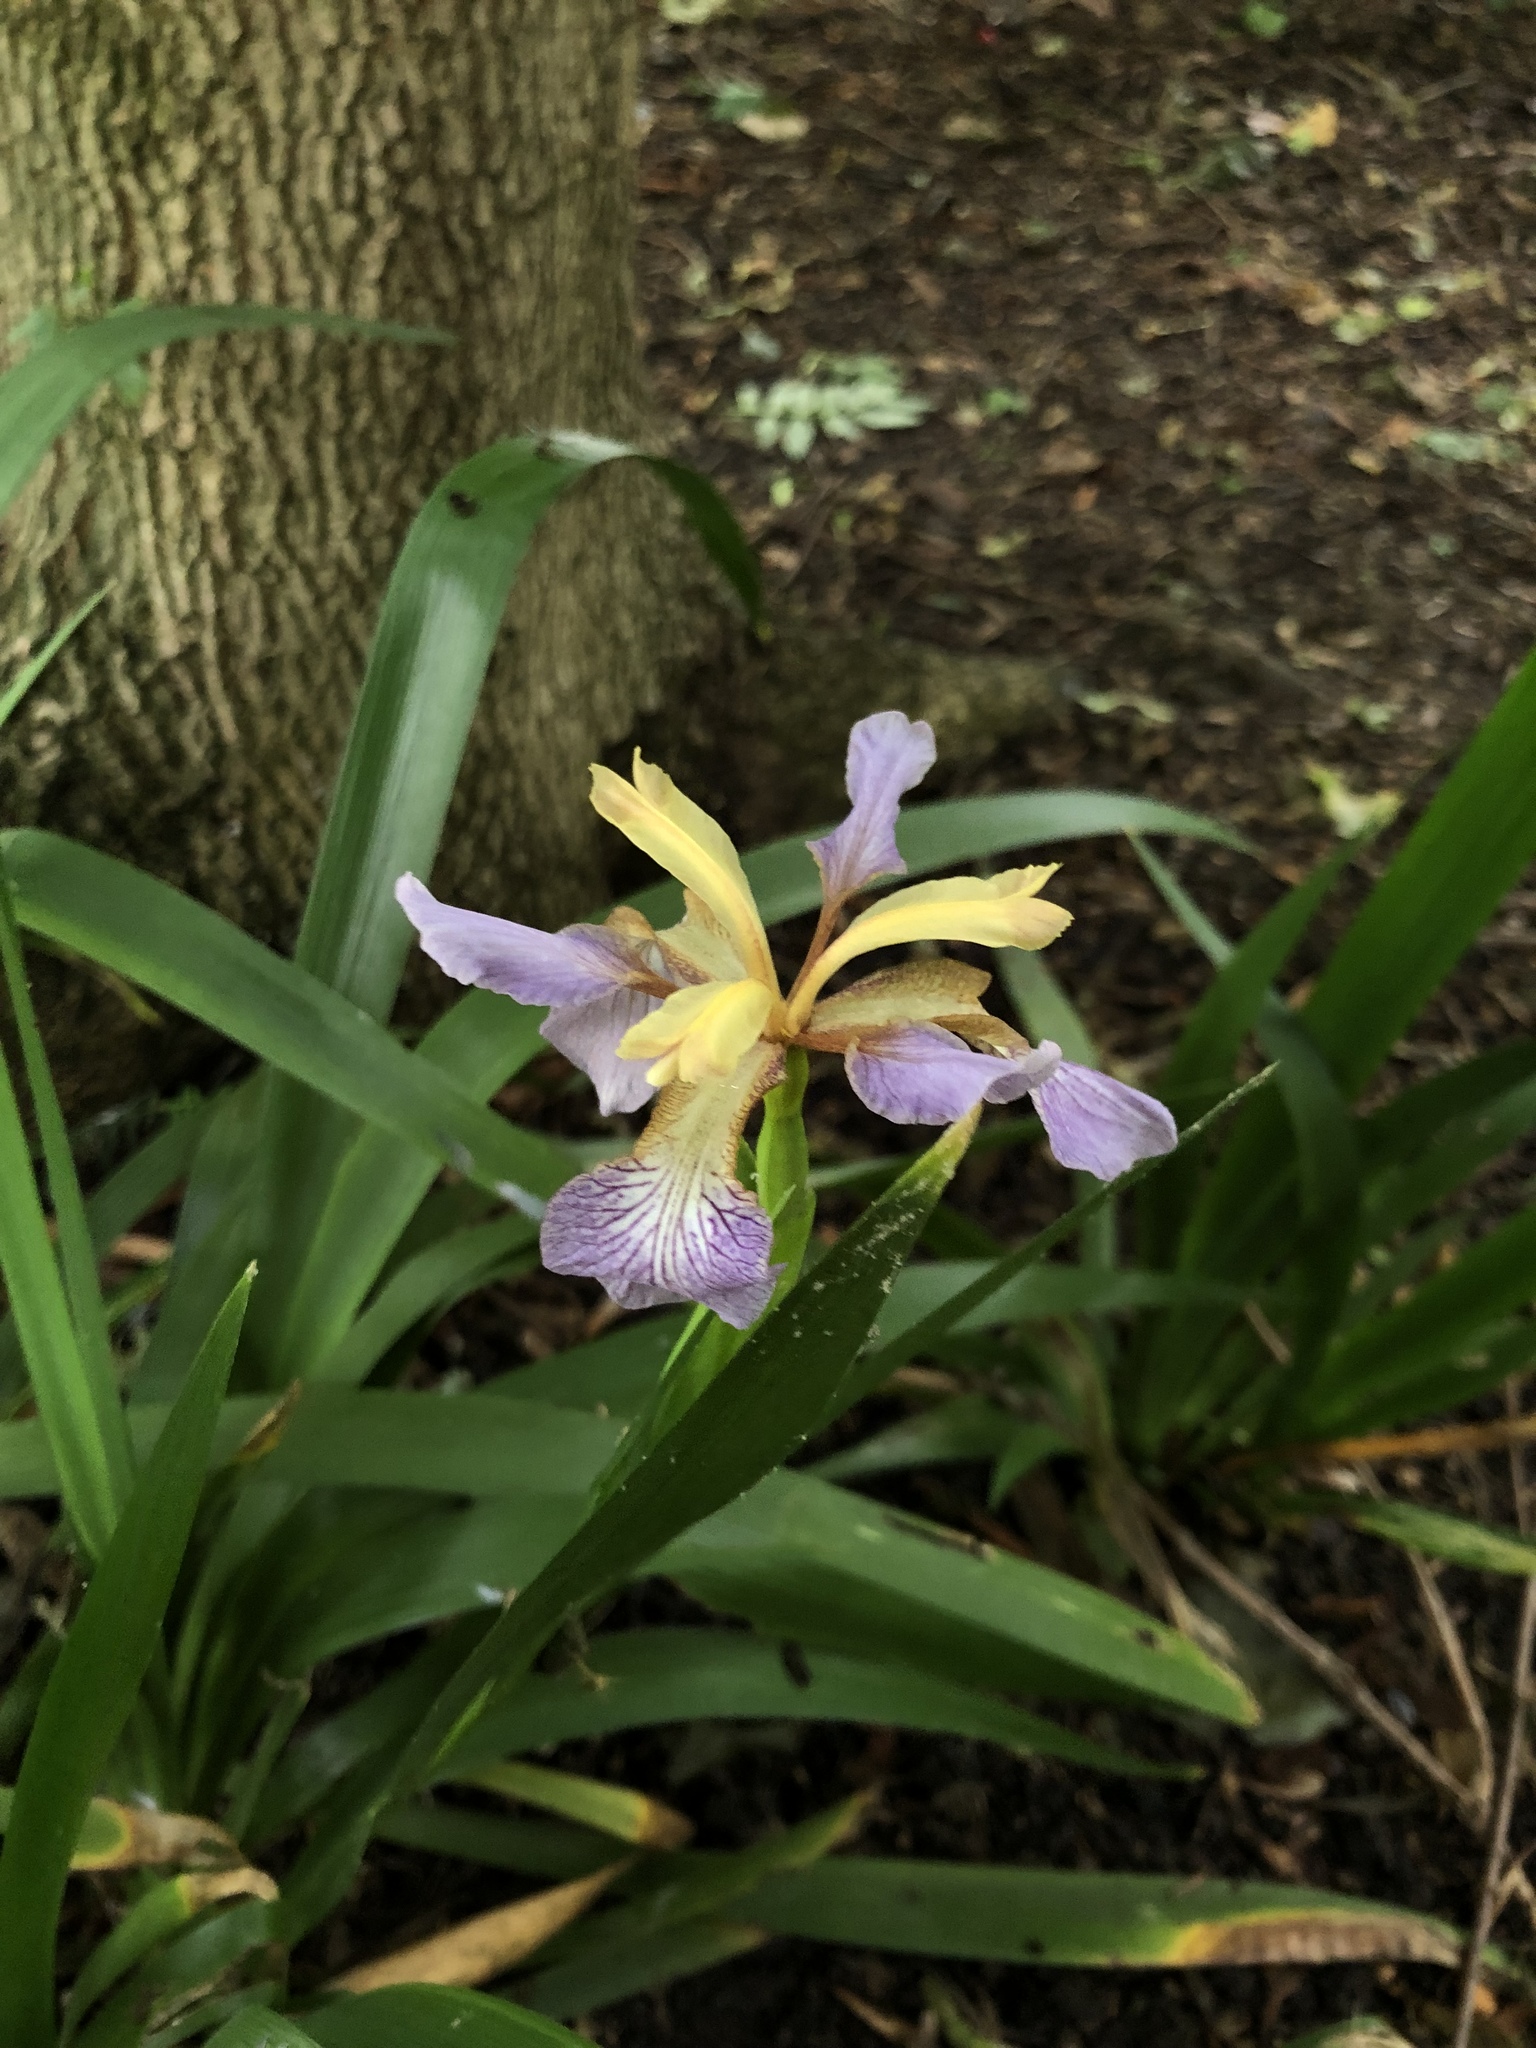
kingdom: Plantae
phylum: Tracheophyta
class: Liliopsida
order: Asparagales
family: Iridaceae
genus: Iris
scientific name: Iris foetidissima
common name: Stinking iris
